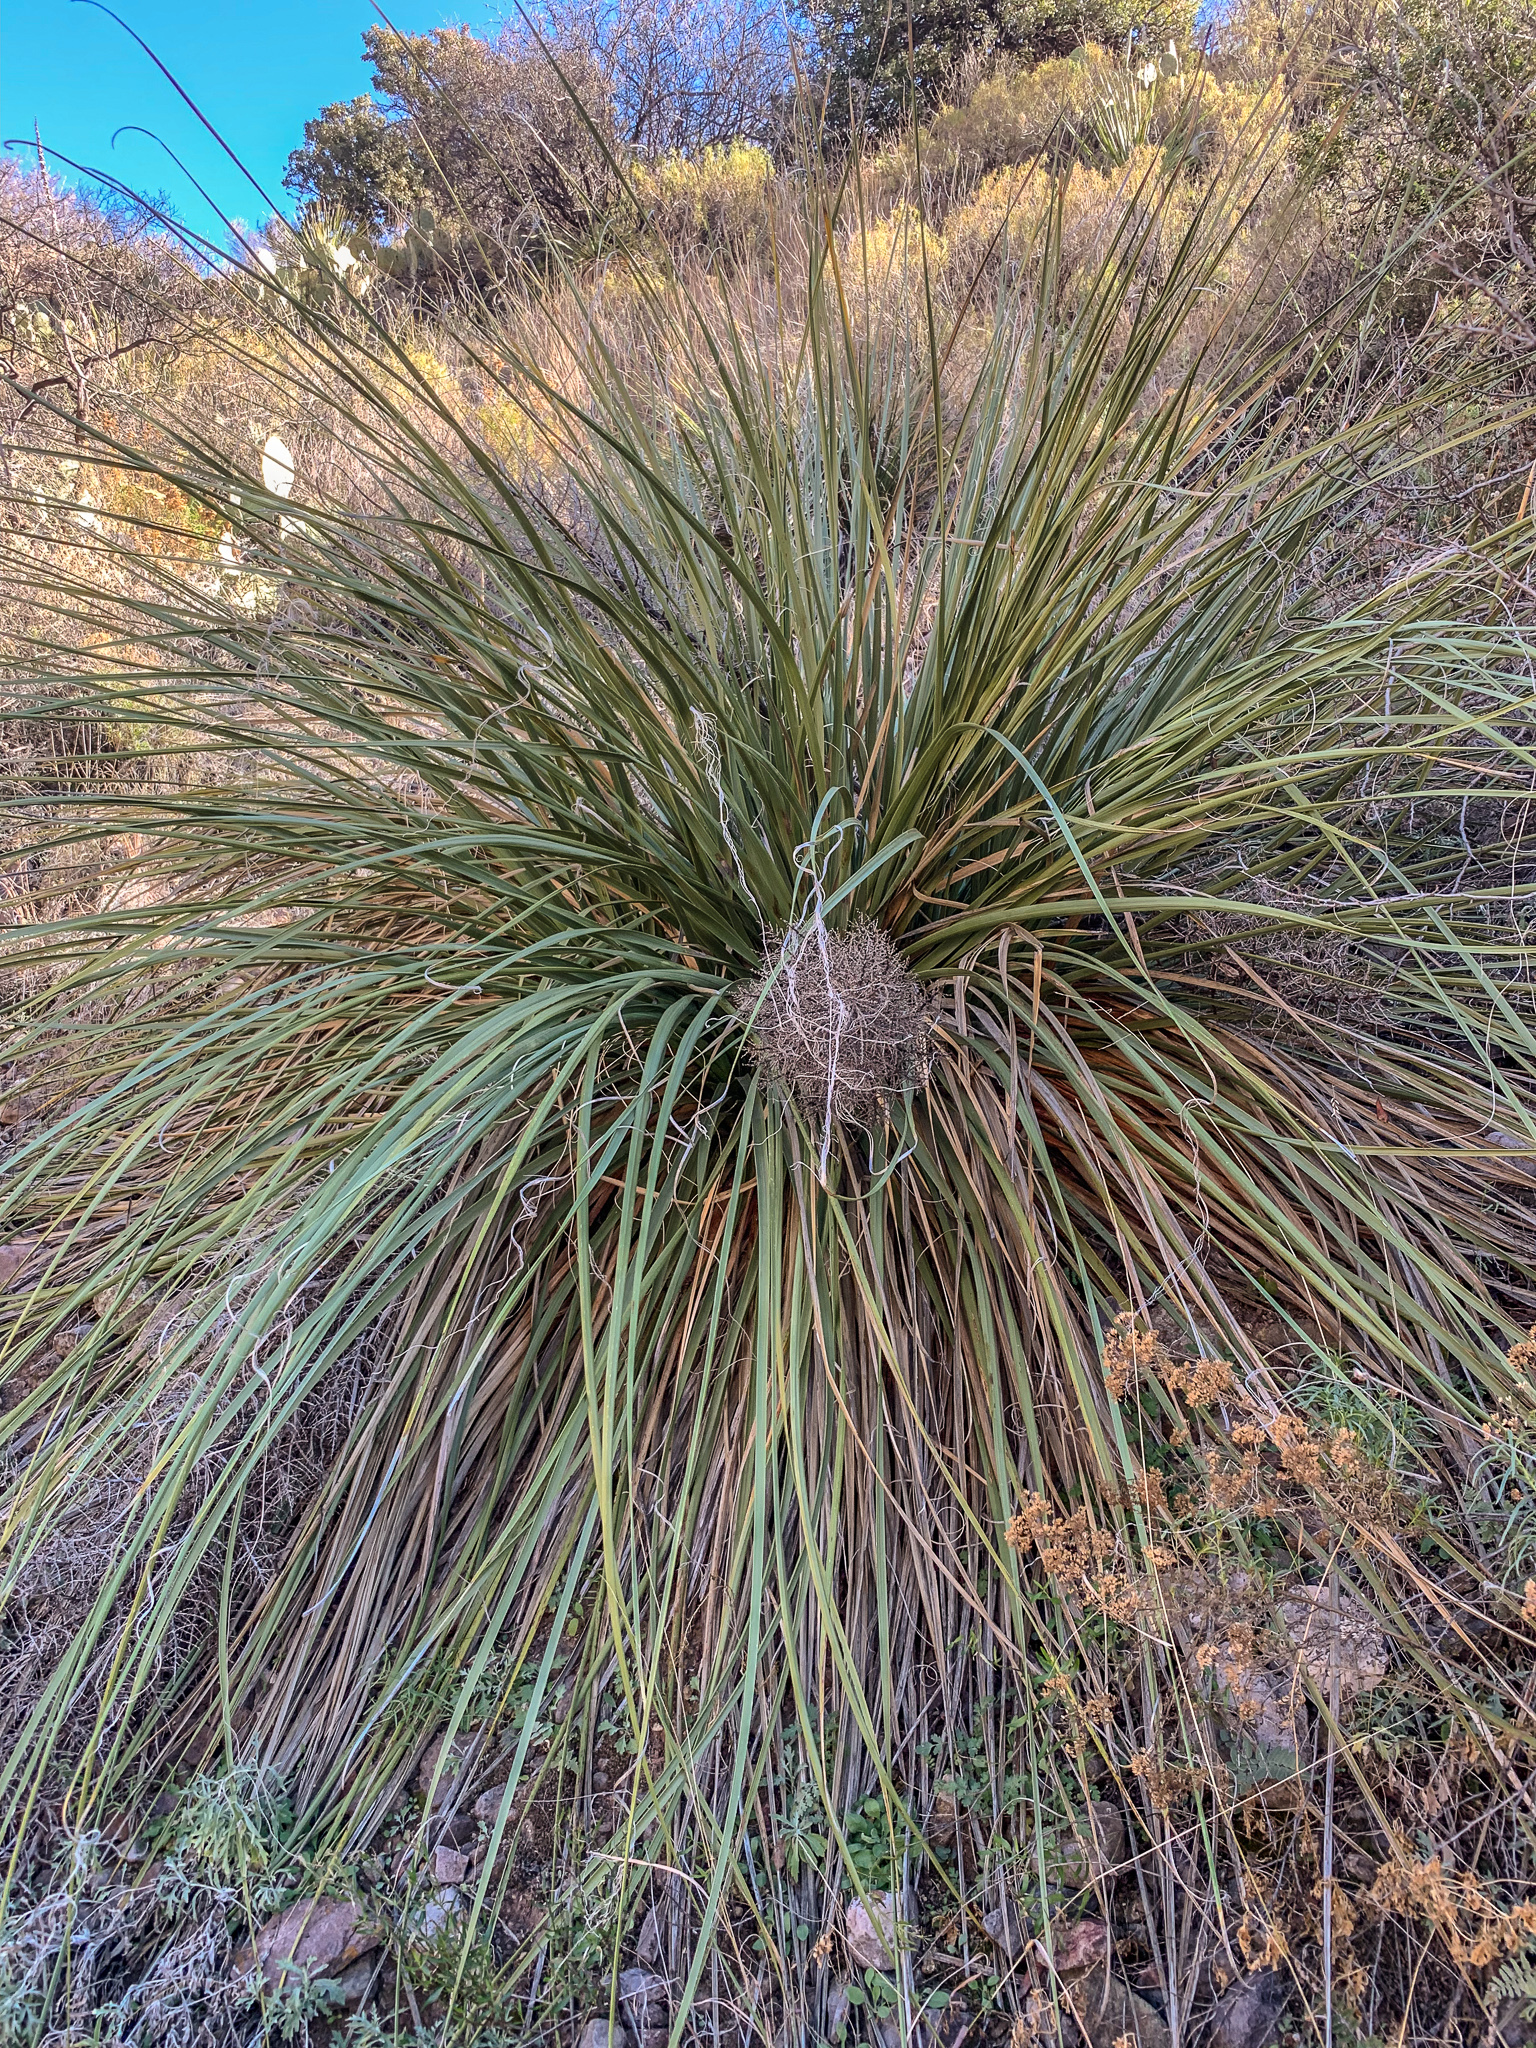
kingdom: Plantae
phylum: Tracheophyta
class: Liliopsida
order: Asparagales
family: Asparagaceae
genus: Nolina
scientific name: Nolina erumpens
